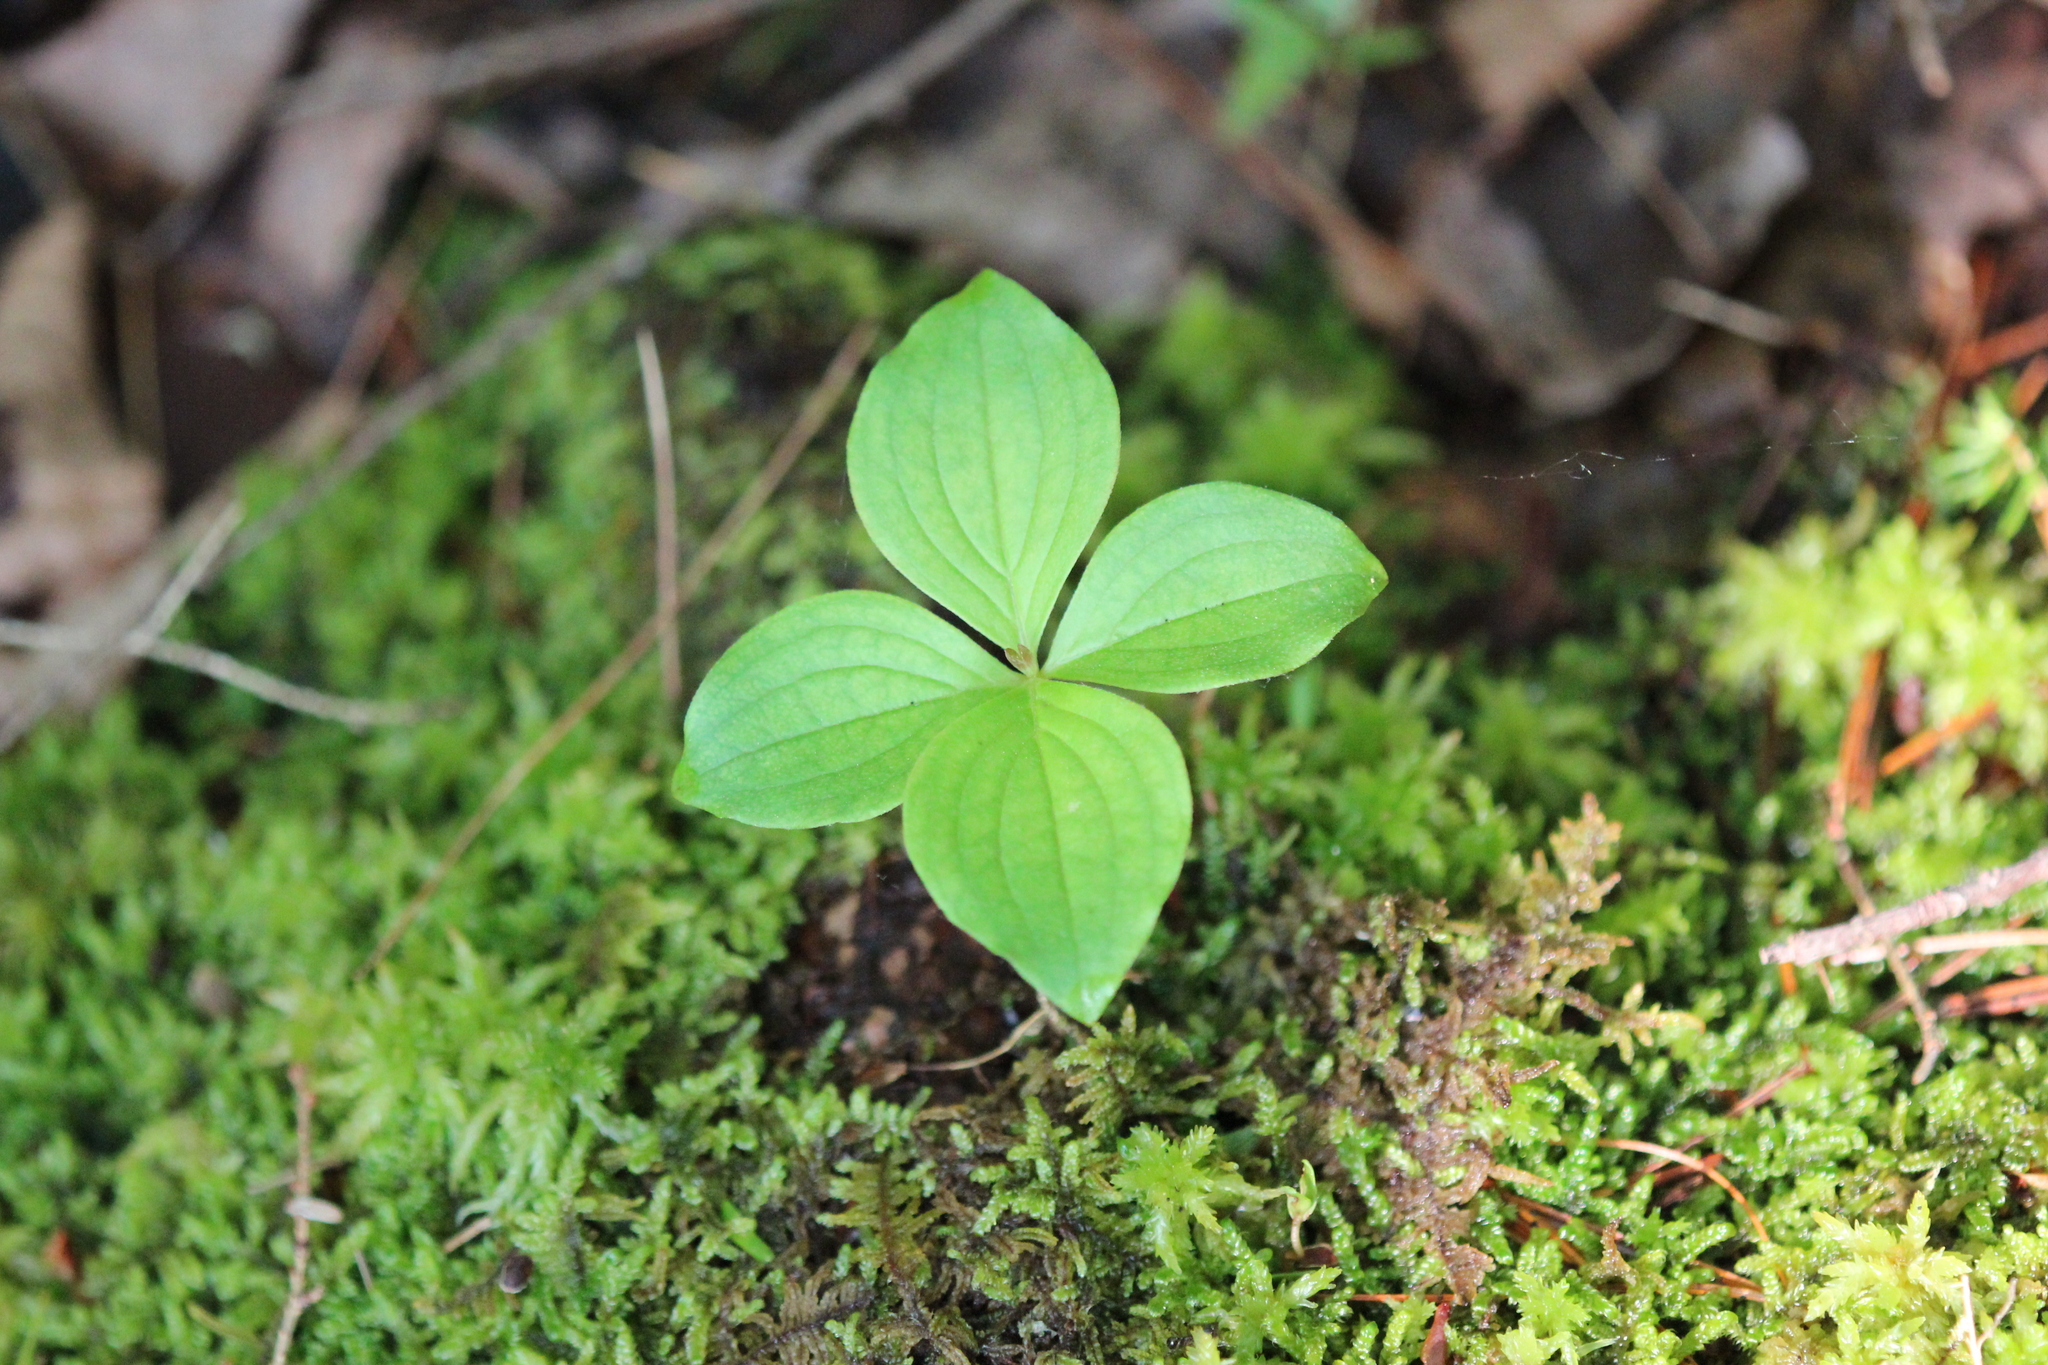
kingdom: Plantae
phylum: Tracheophyta
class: Magnoliopsida
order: Cornales
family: Cornaceae
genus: Cornus
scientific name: Cornus canadensis
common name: Creeping dogwood
